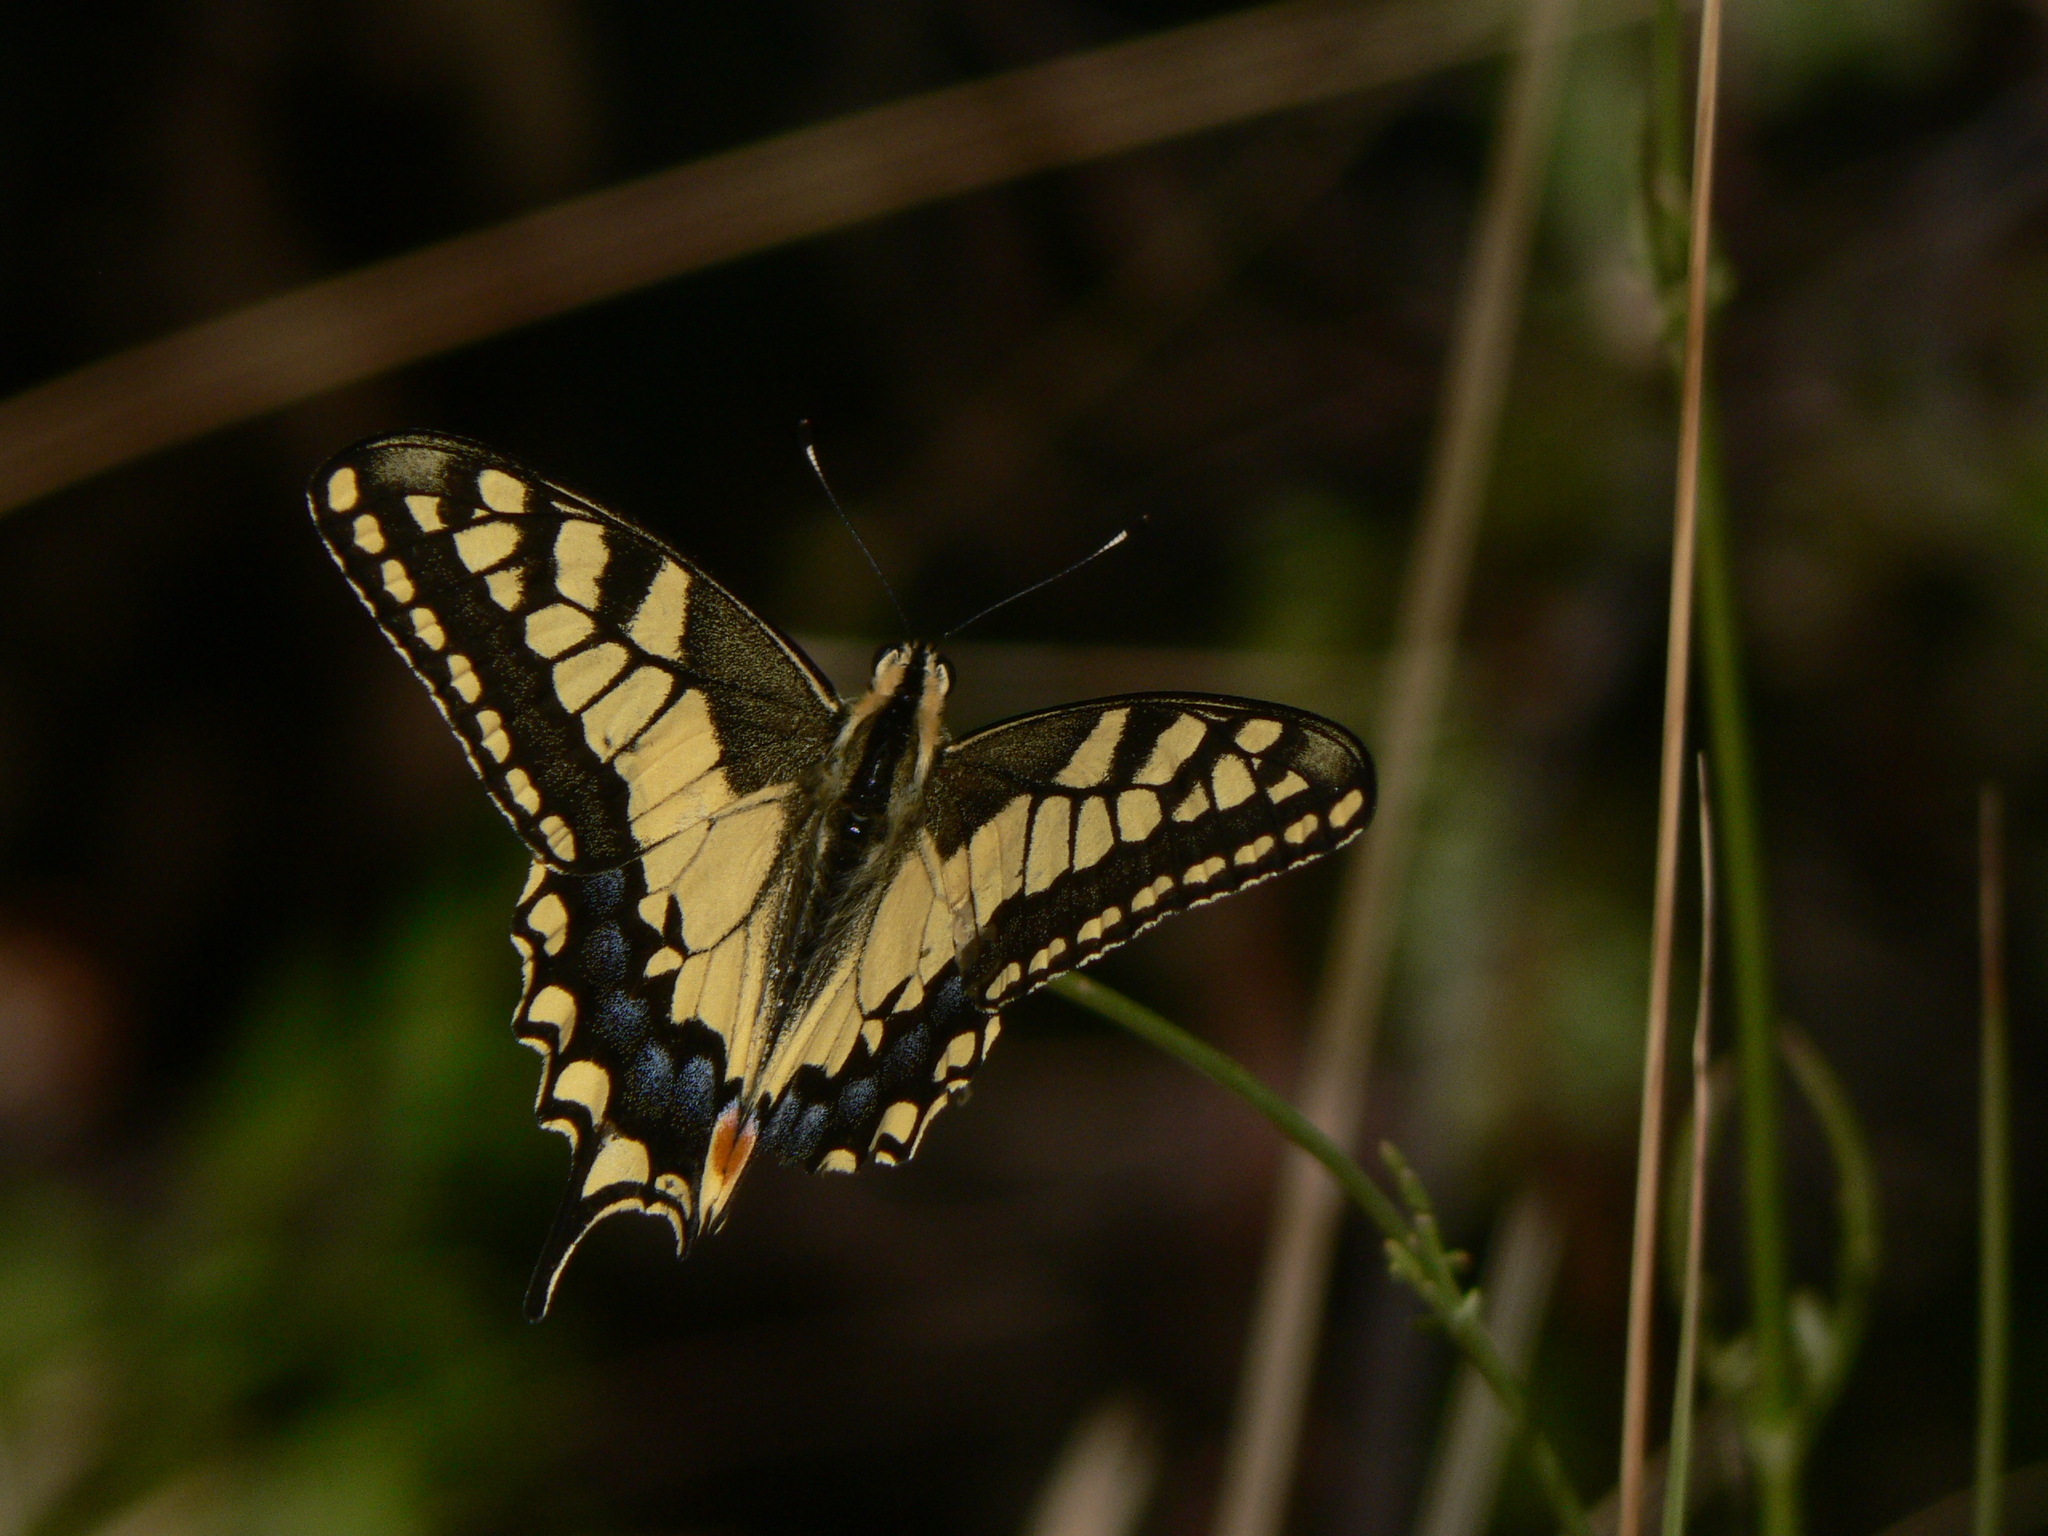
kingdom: Animalia
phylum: Arthropoda
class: Insecta
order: Lepidoptera
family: Papilionidae
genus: Papilio
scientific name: Papilio machaon
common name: Swallowtail
